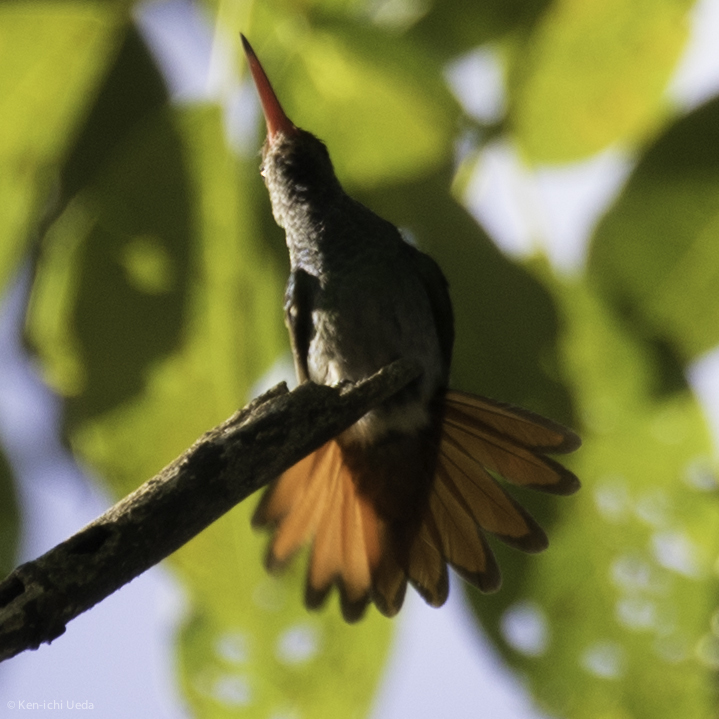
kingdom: Animalia
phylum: Chordata
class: Aves
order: Apodiformes
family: Trochilidae
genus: Amazilia
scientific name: Amazilia tzacatl
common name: Rufous-tailed hummingbird
